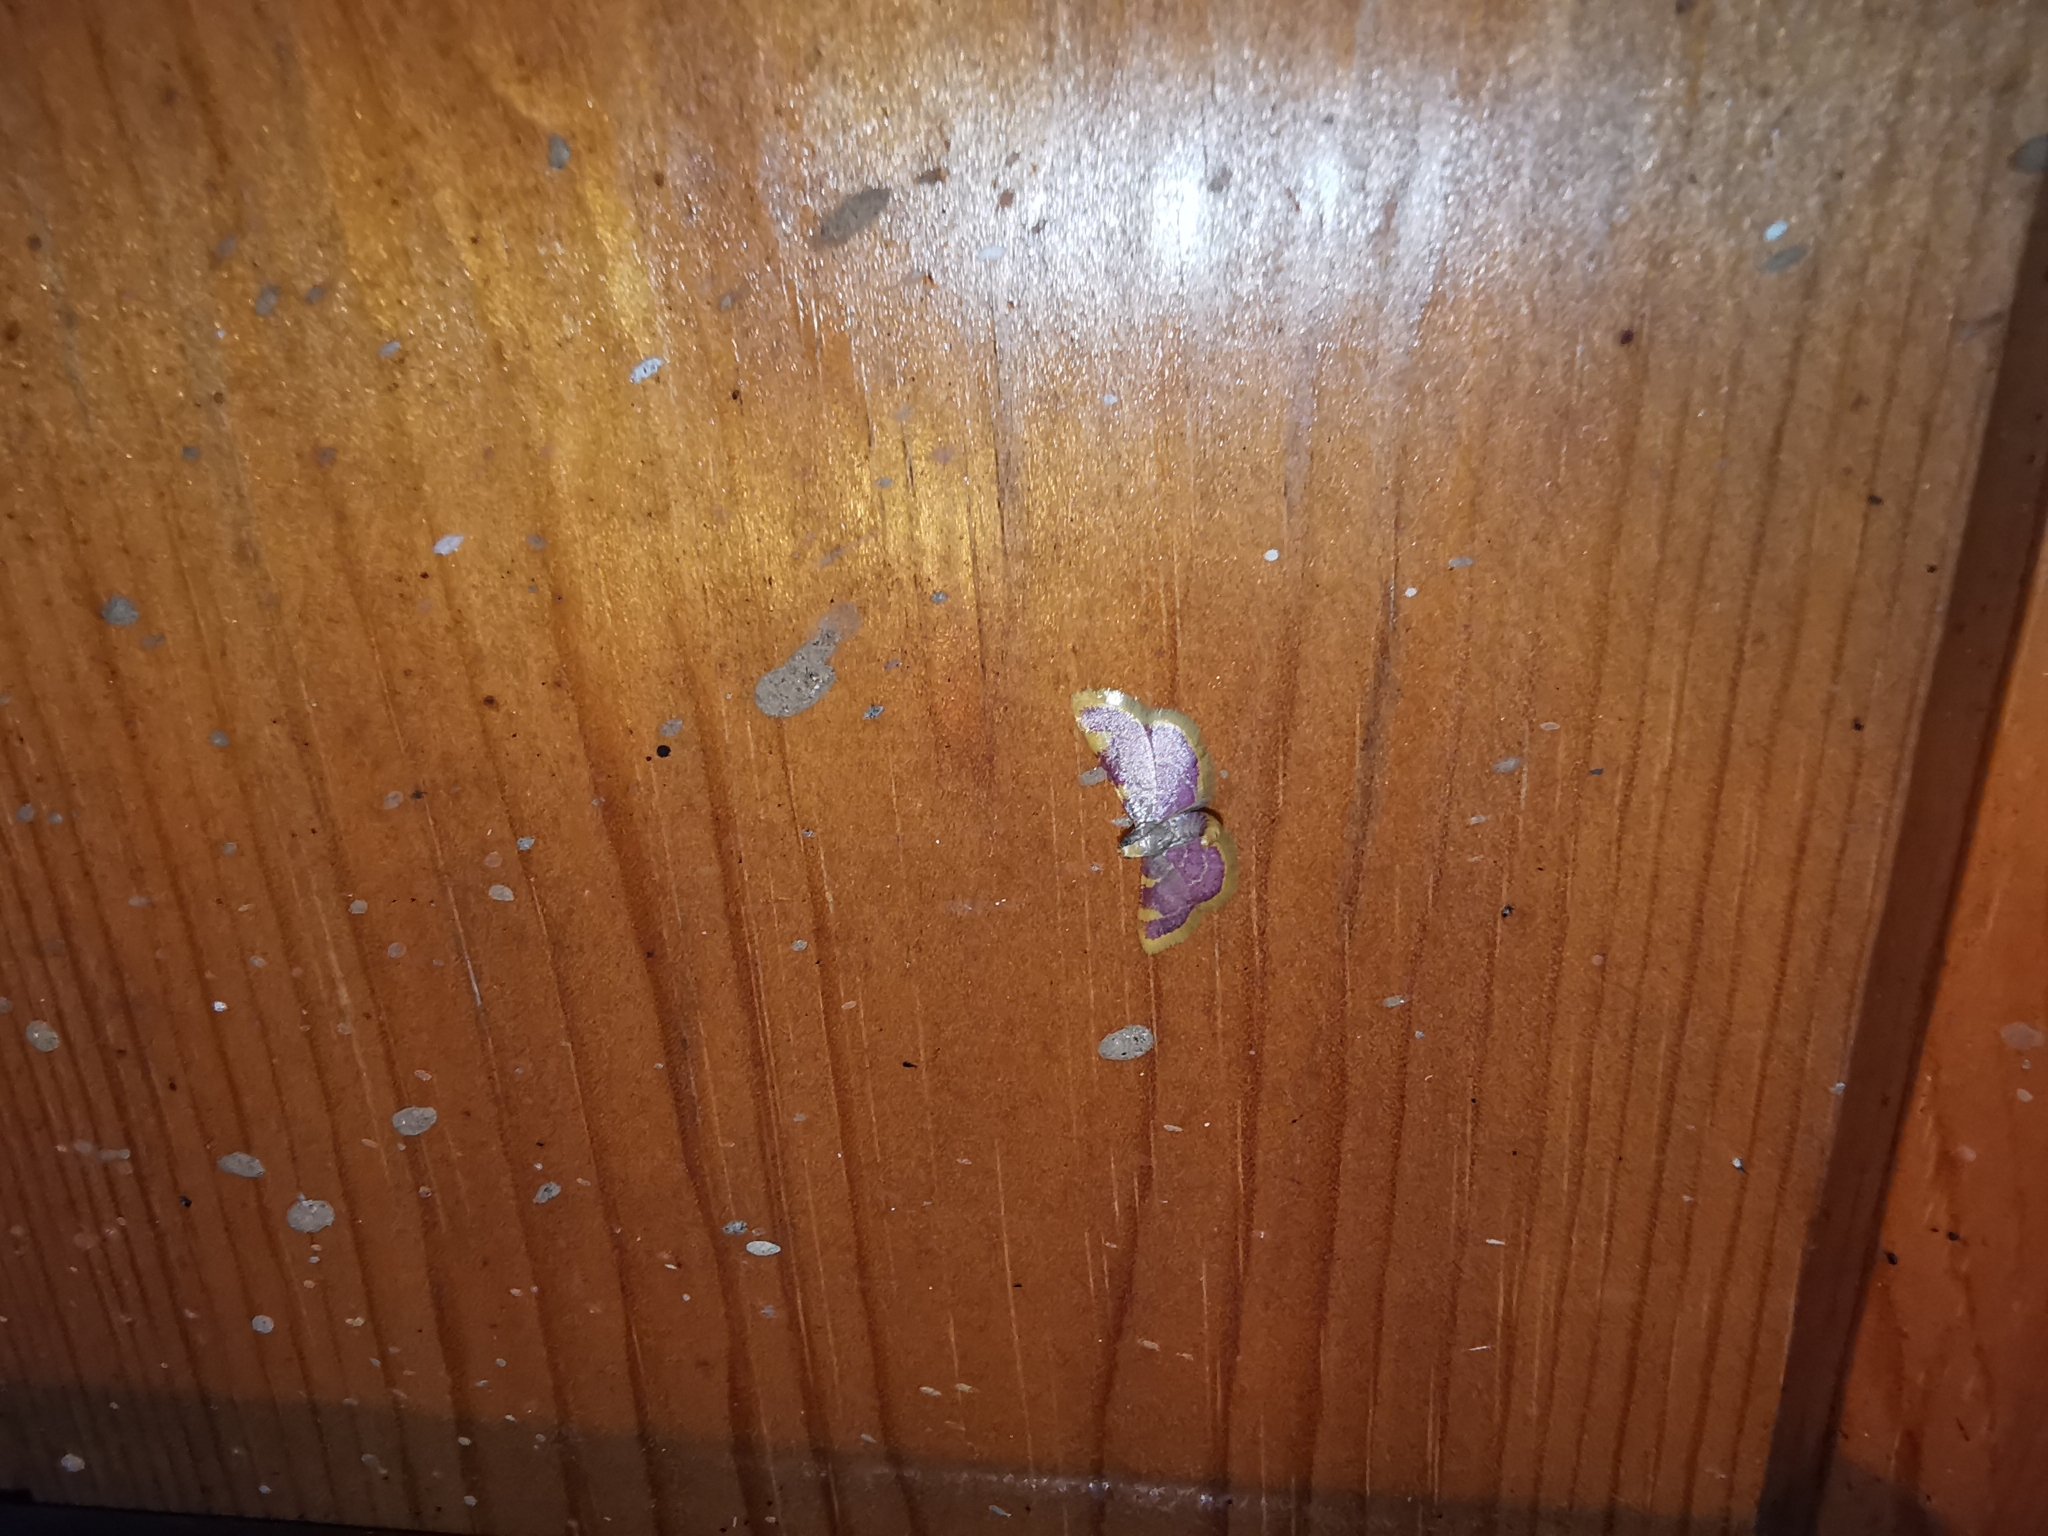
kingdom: Animalia
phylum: Arthropoda
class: Insecta
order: Lepidoptera
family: Pyralidae
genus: Hypsopygia
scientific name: Hypsopygia costalis
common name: Gold triangle
